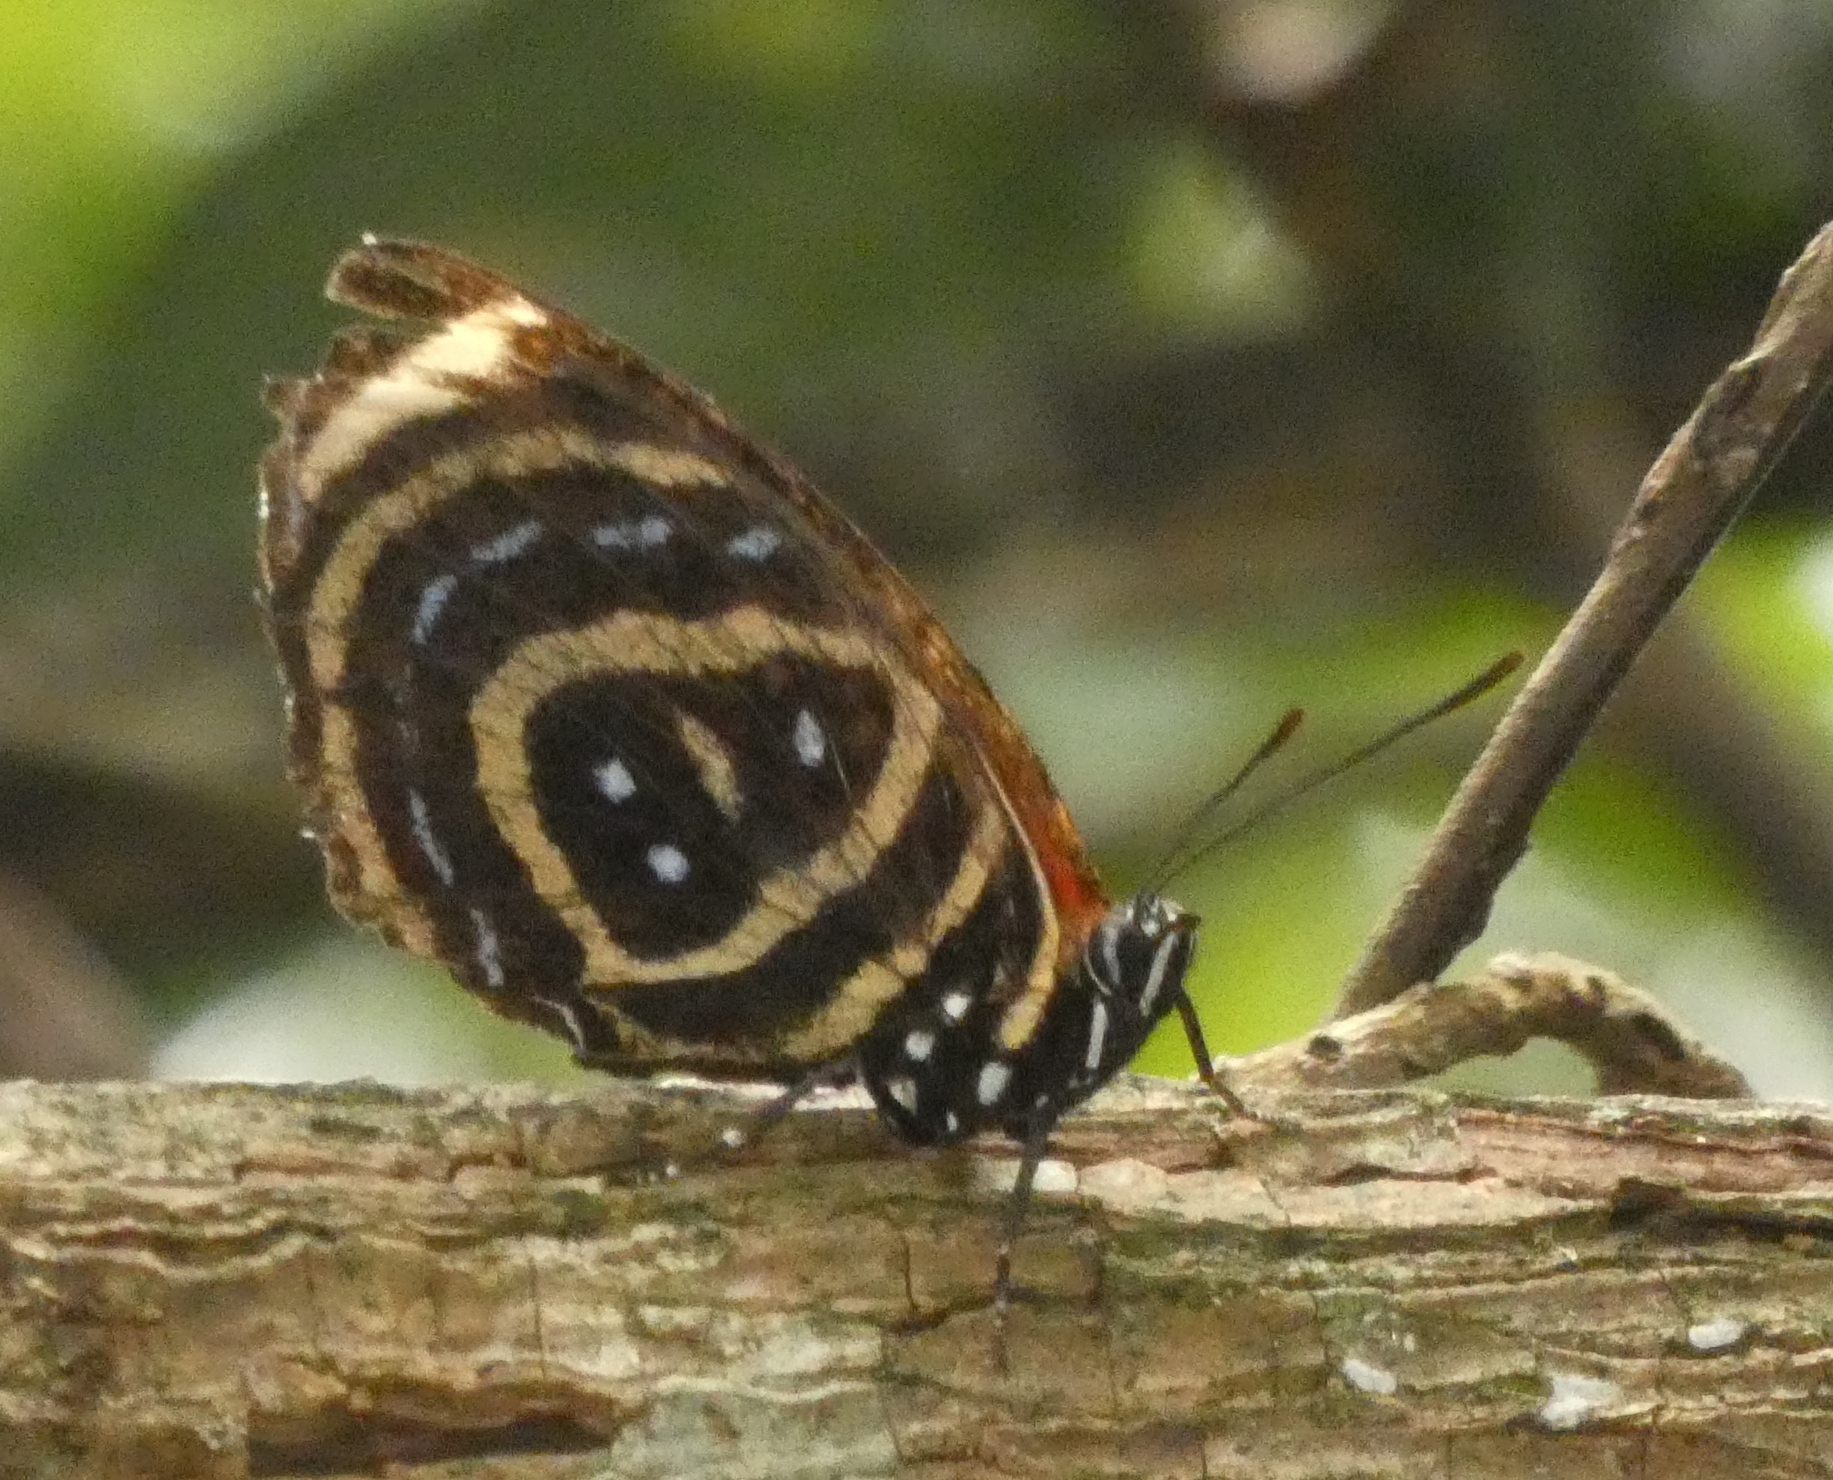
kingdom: Animalia
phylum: Arthropoda
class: Insecta
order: Lepidoptera
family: Nymphalidae
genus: Catagramma
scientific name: Catagramma astarte
